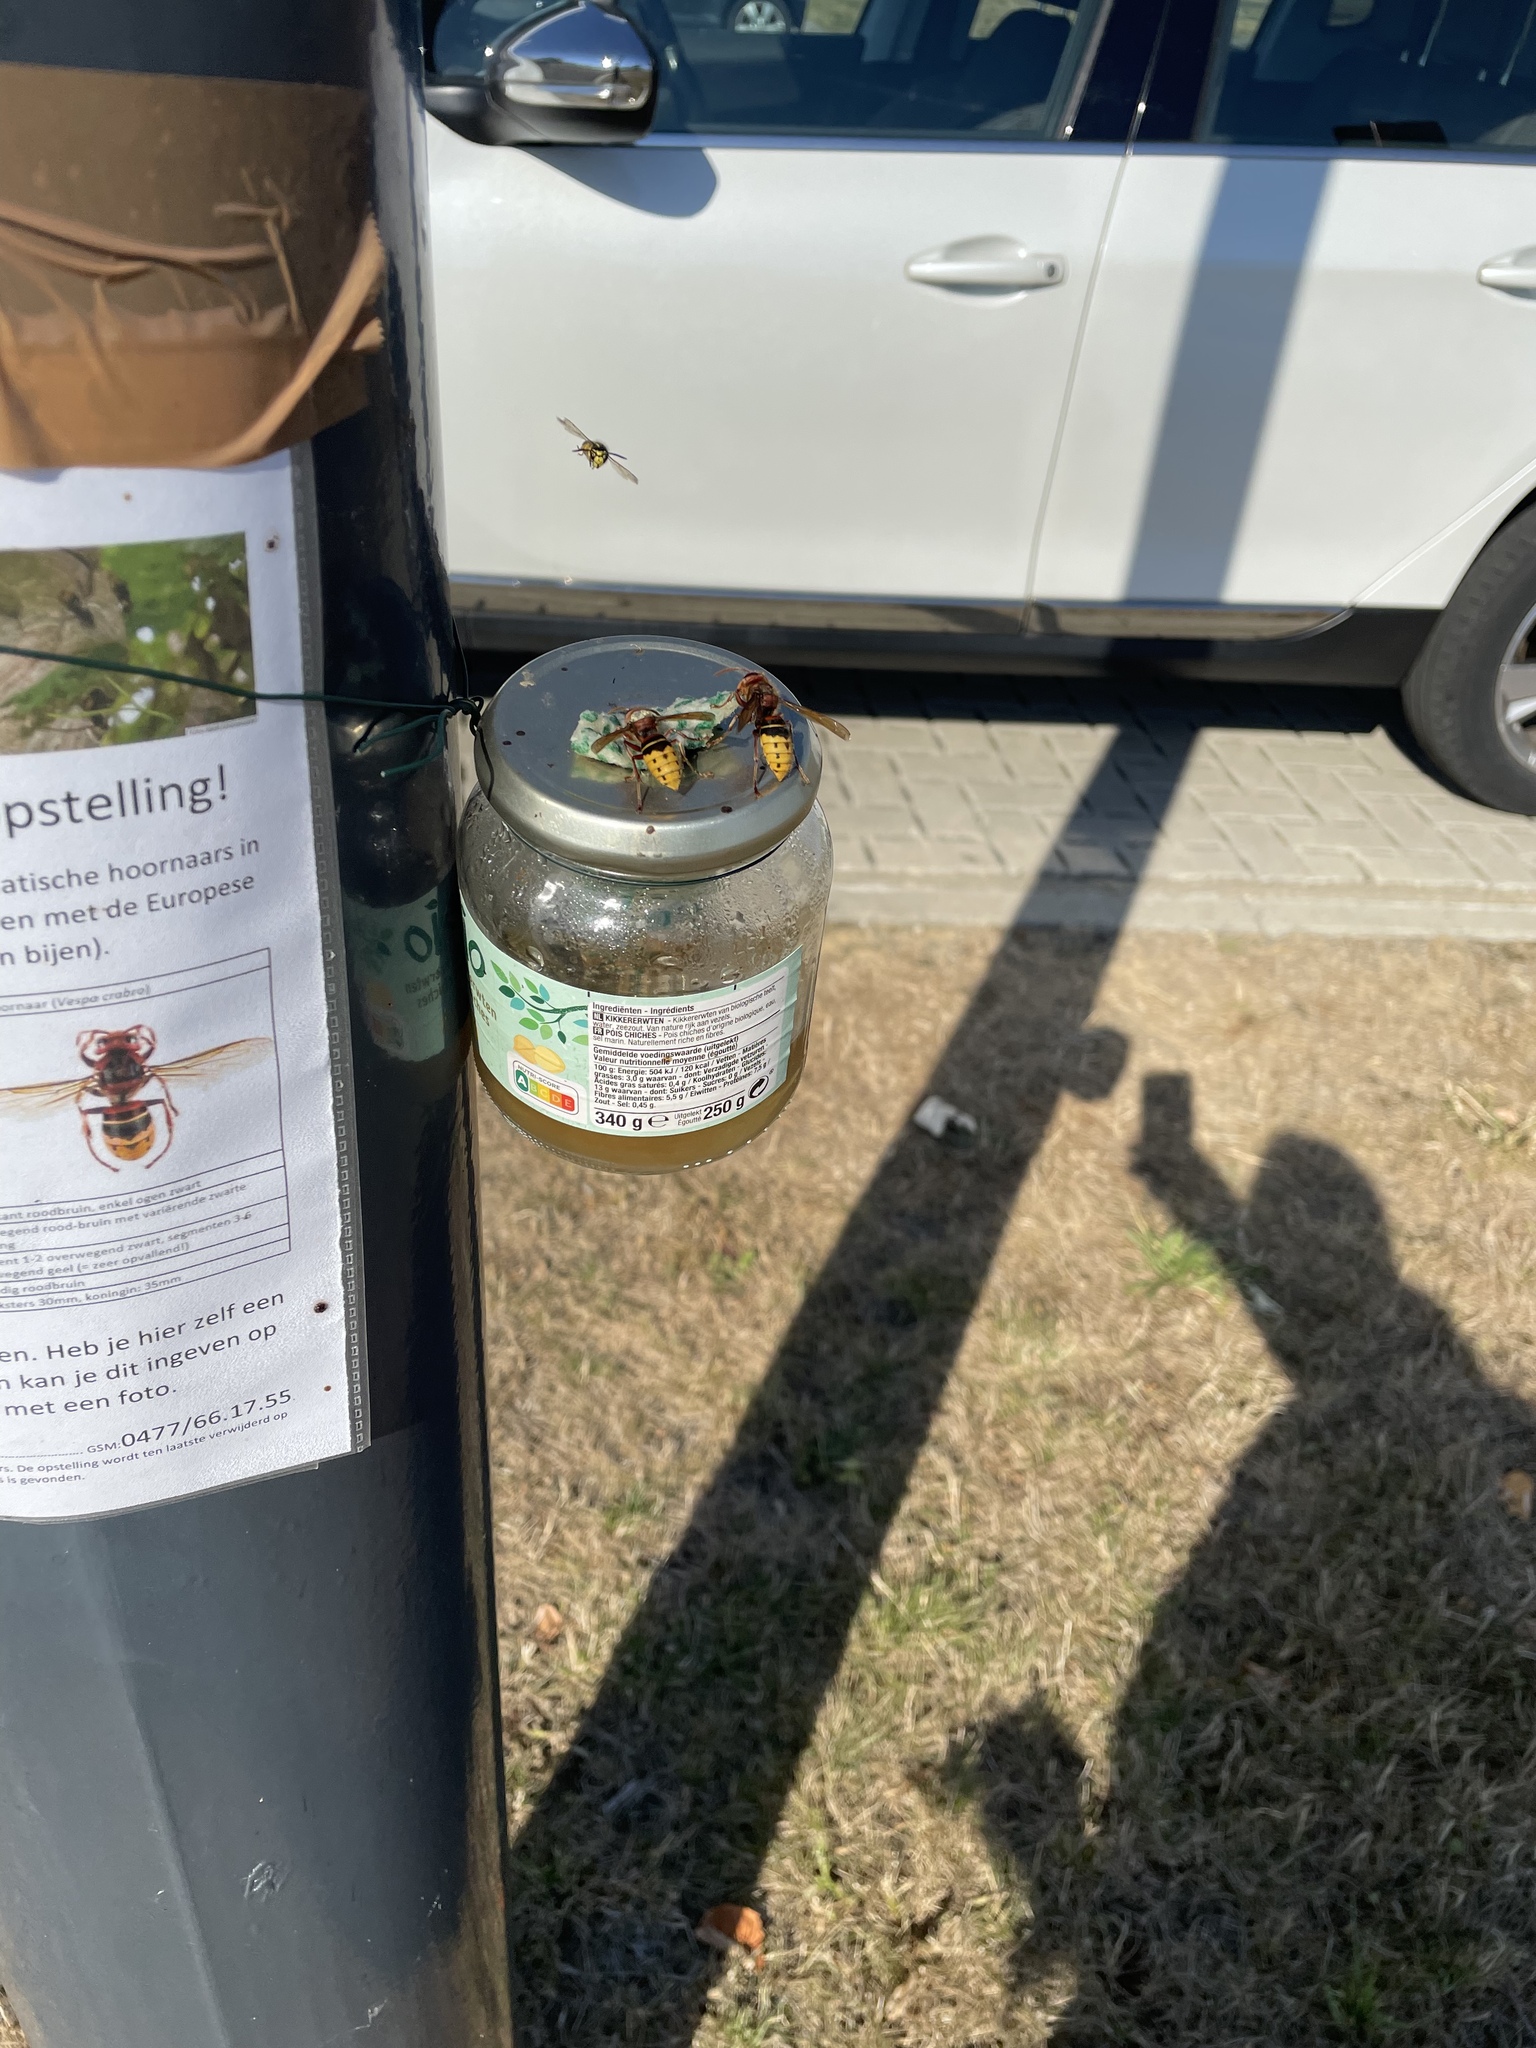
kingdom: Animalia
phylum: Arthropoda
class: Insecta
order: Hymenoptera
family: Vespidae
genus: Vespa
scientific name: Vespa crabro
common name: Hornet
